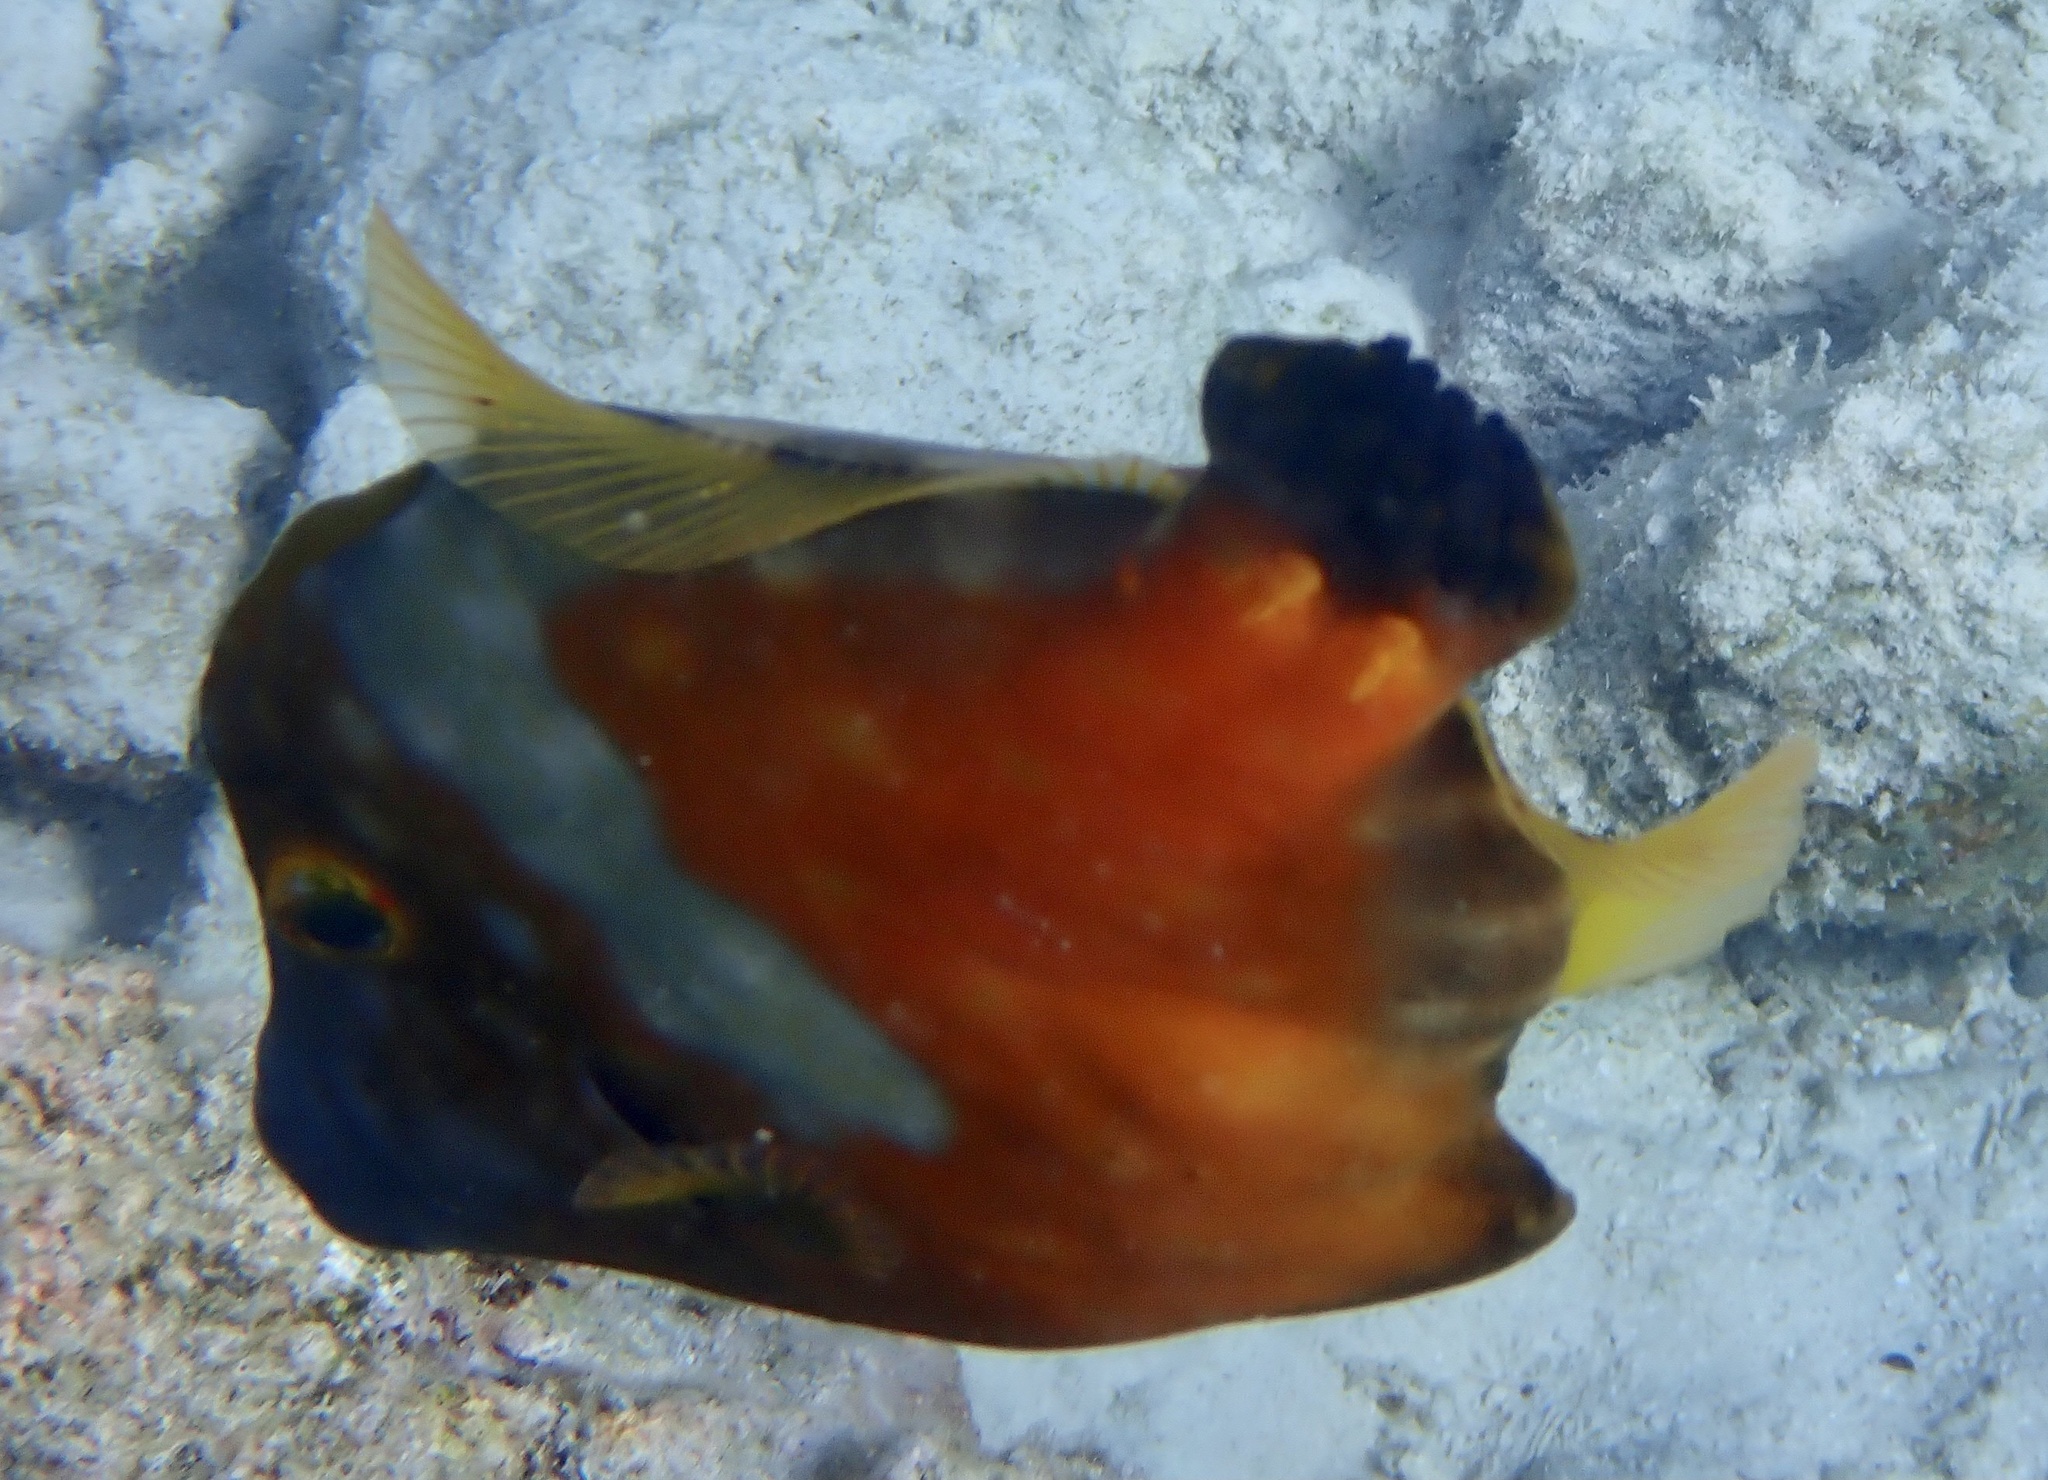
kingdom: Animalia
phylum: Chordata
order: Tetraodontiformes
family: Monacanthidae
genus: Cantherhines
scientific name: Cantherhines macrocerus
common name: Whitespotted filefish
